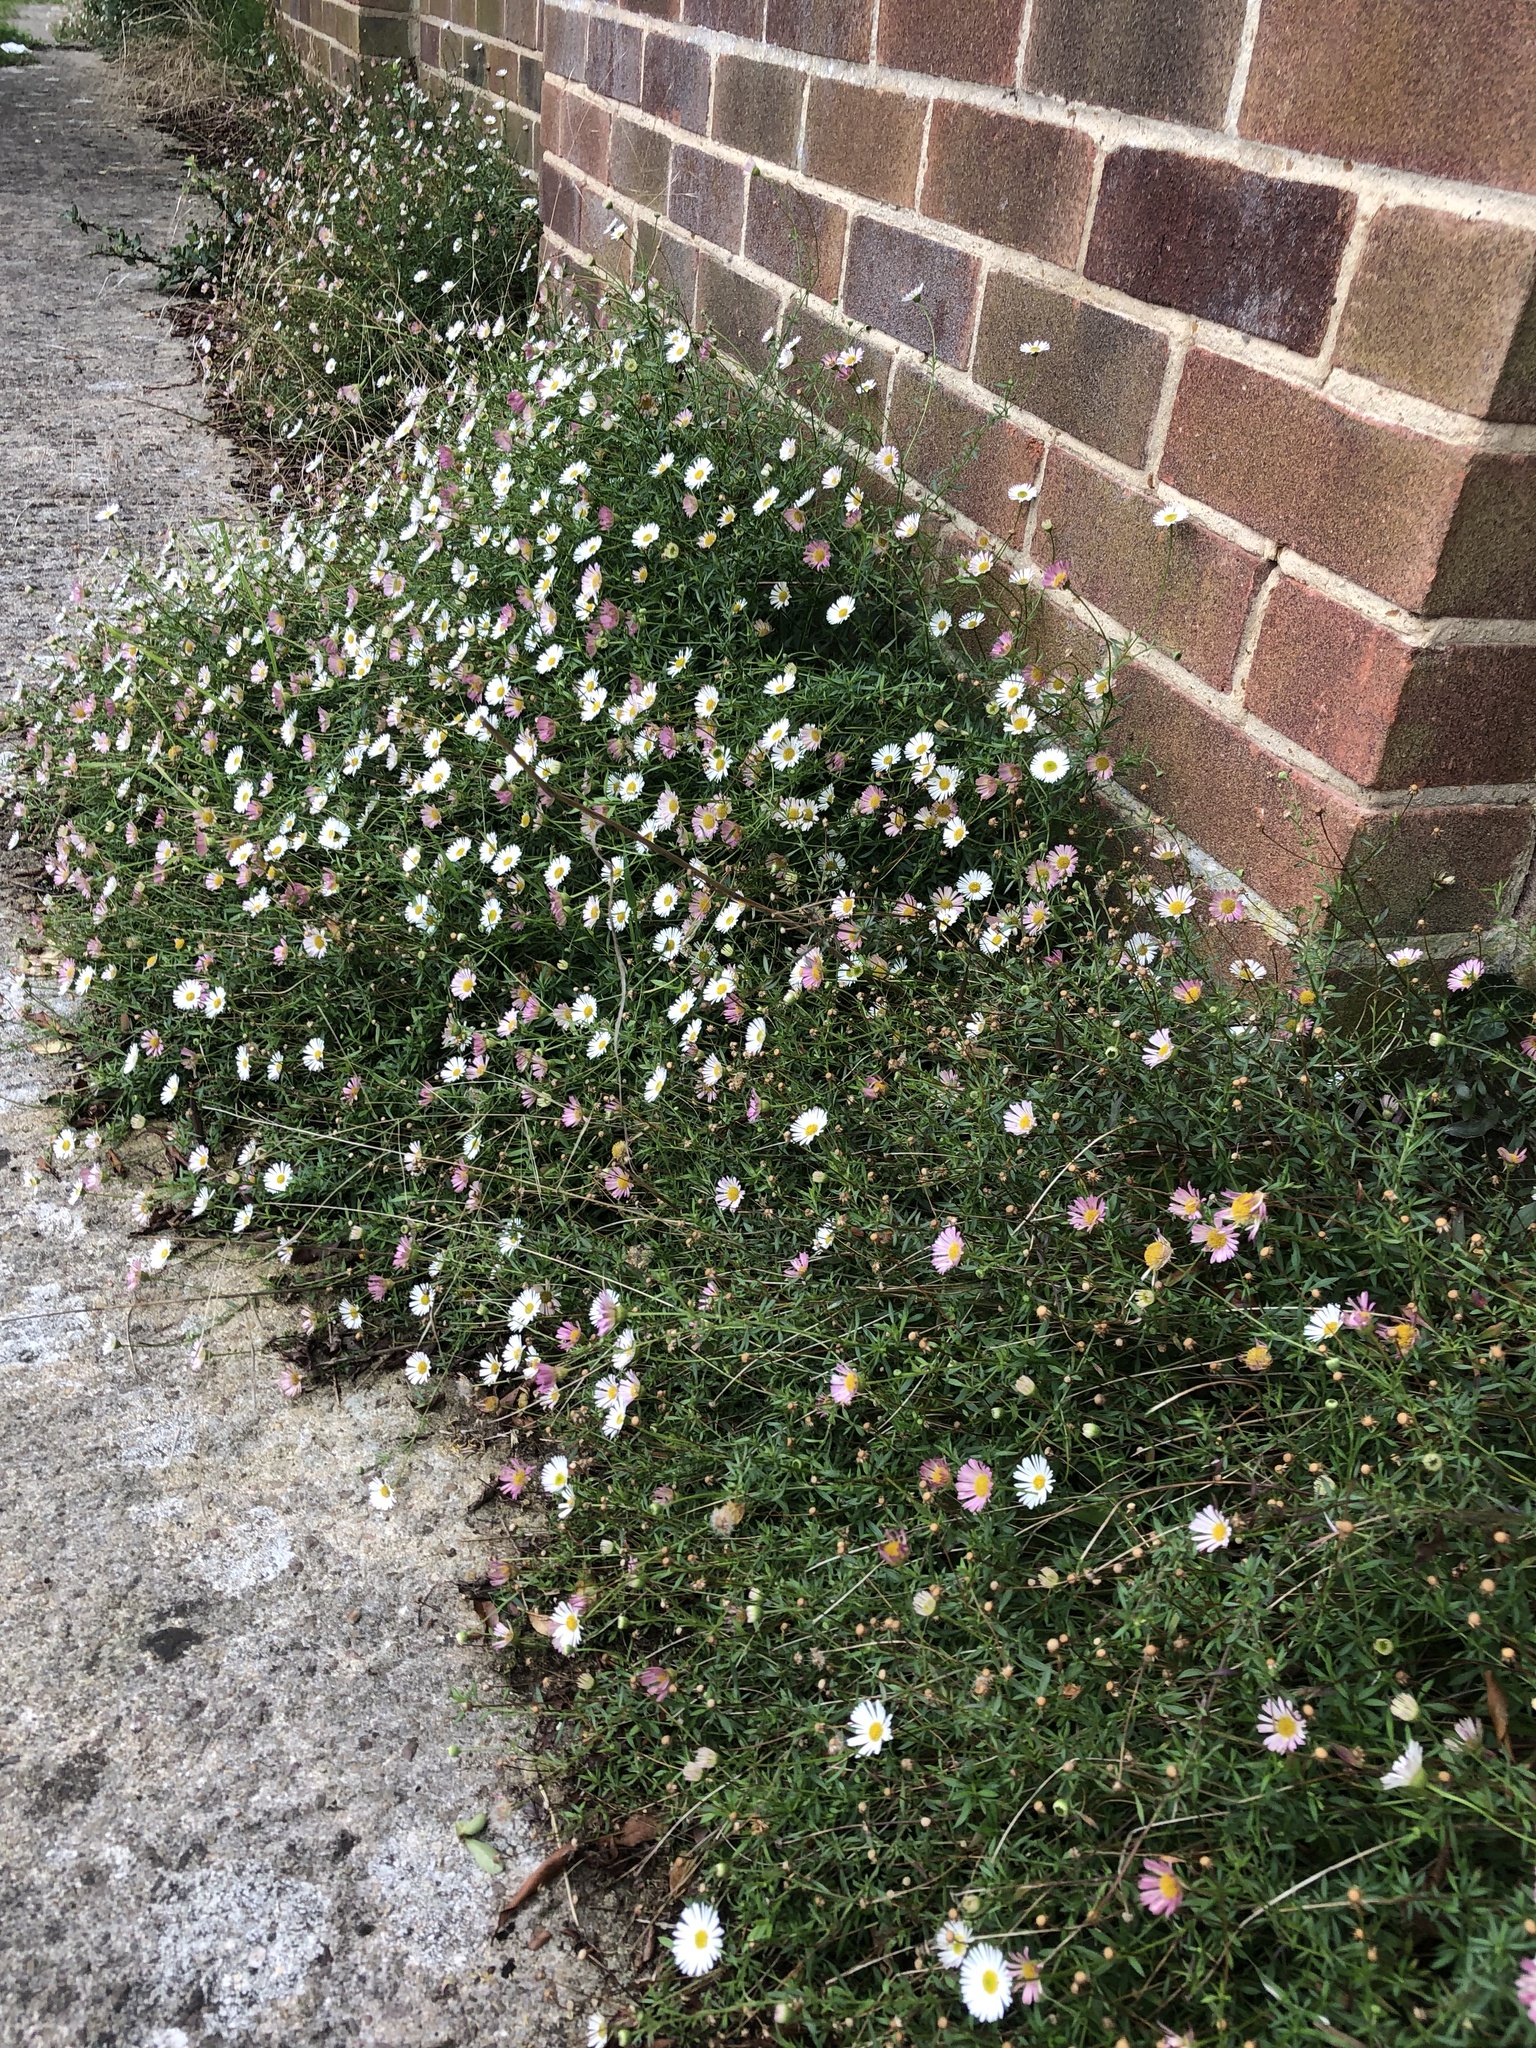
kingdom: Plantae
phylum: Tracheophyta
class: Magnoliopsida
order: Asterales
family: Asteraceae
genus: Erigeron
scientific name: Erigeron karvinskianus
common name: Mexican fleabane
